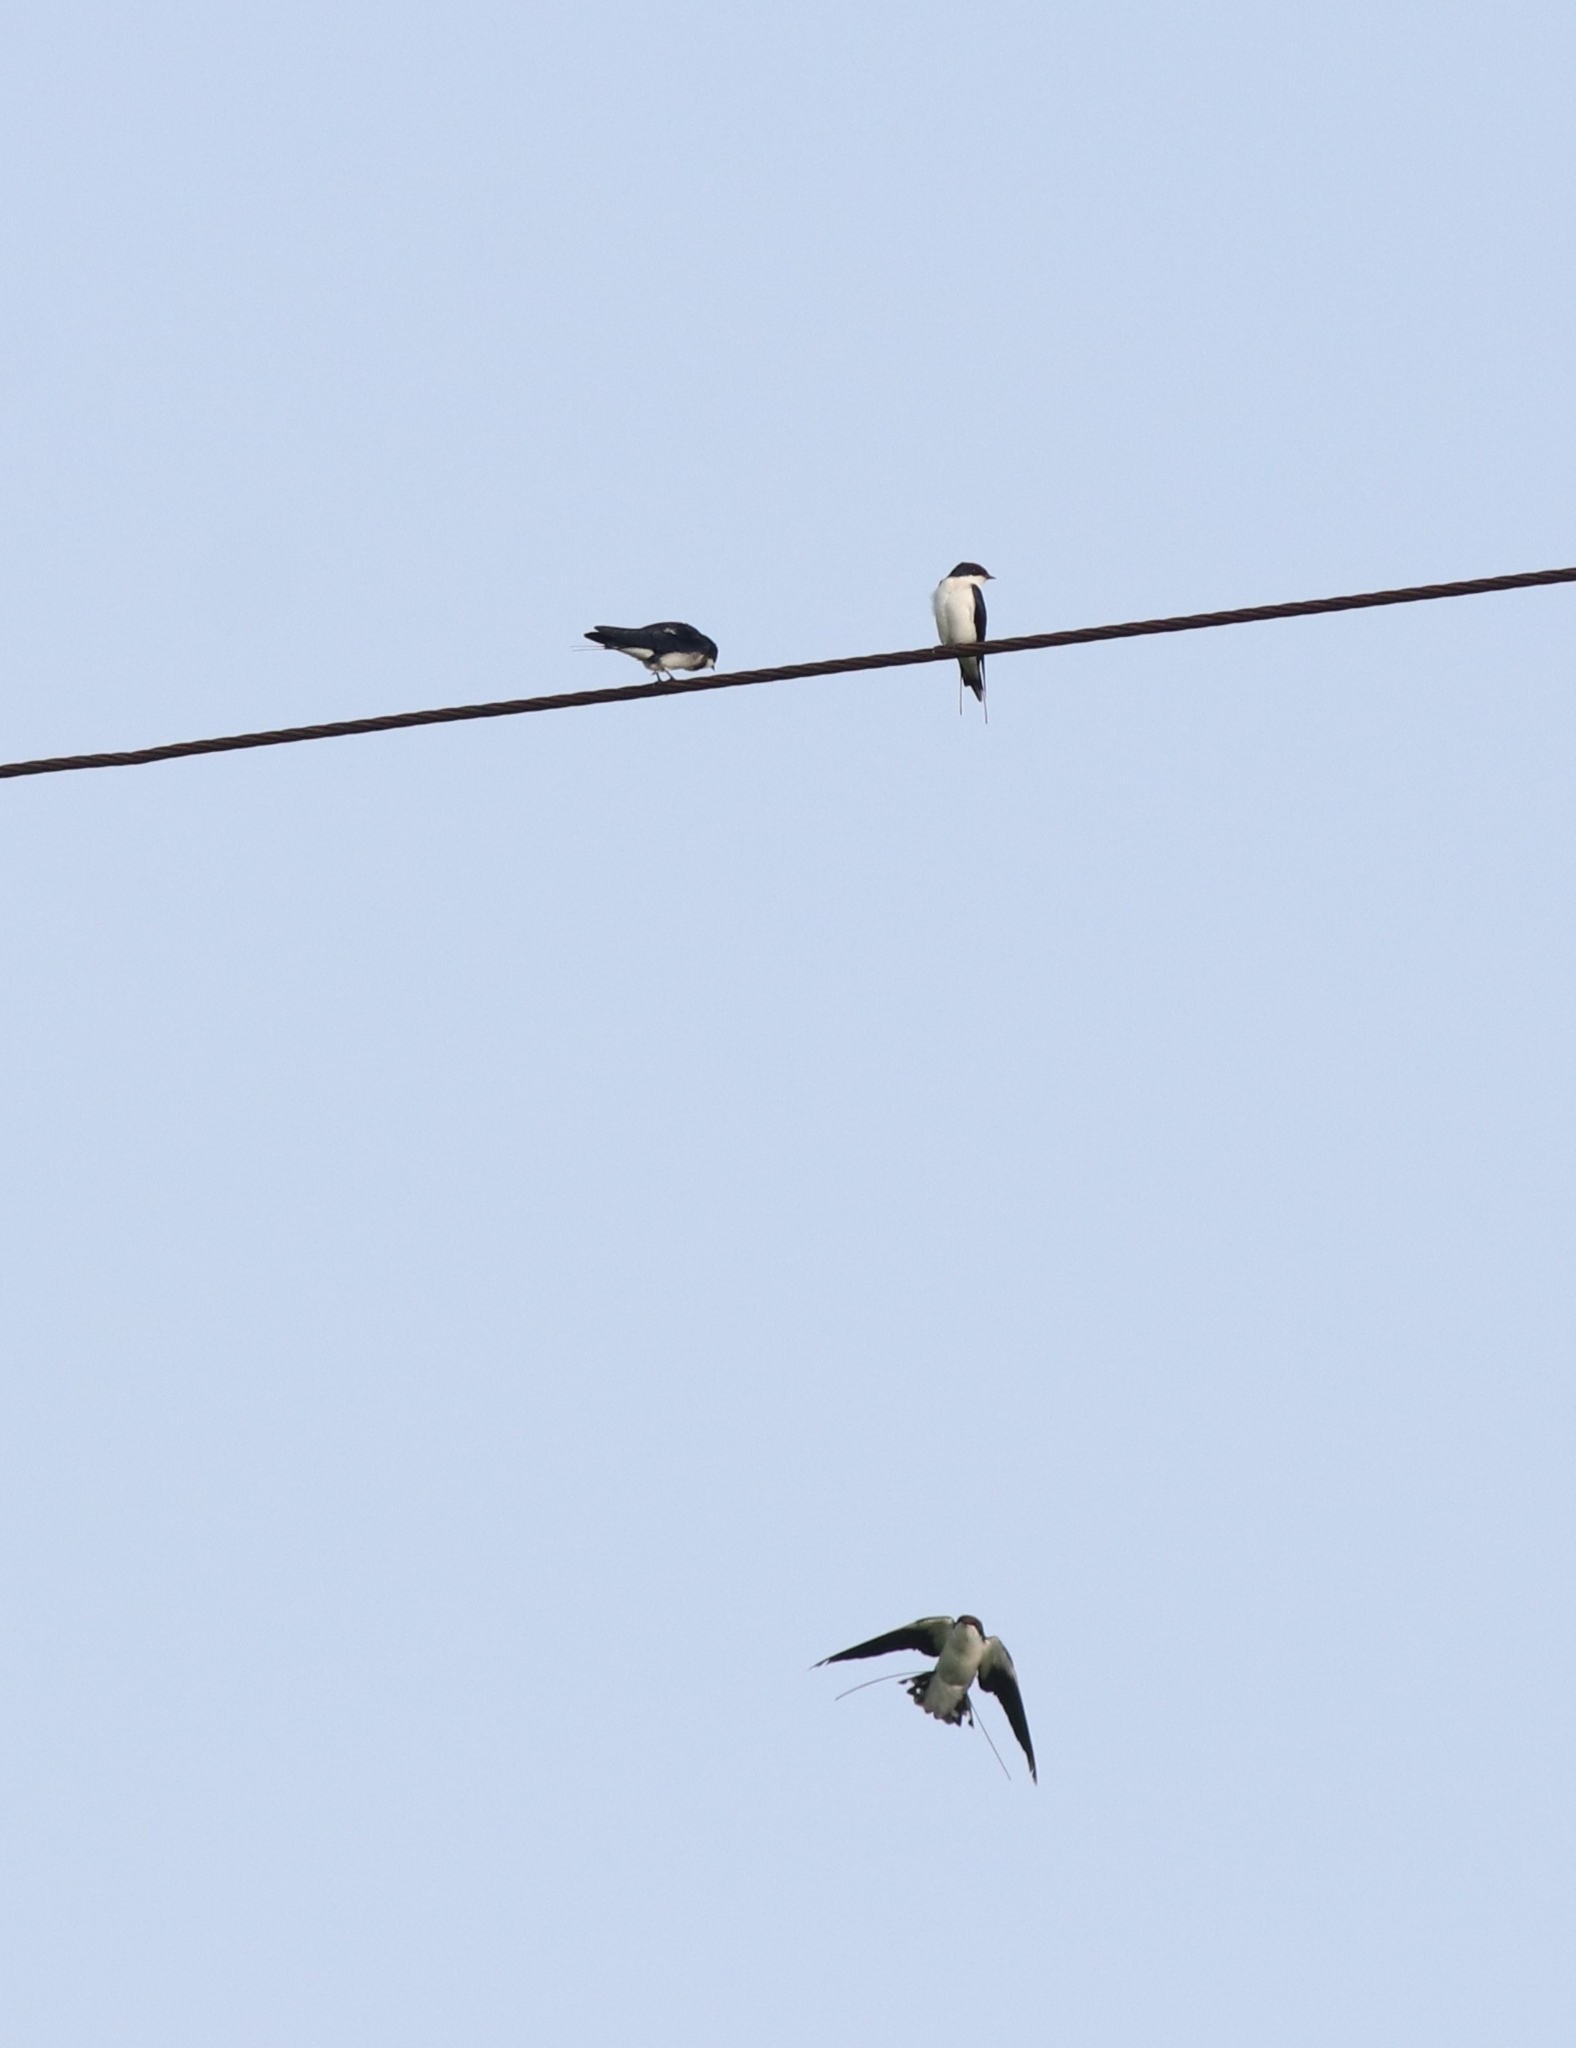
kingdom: Animalia
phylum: Chordata
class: Aves
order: Passeriformes
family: Hirundinidae
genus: Hirundo
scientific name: Hirundo smithii
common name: Wire-tailed swallow
